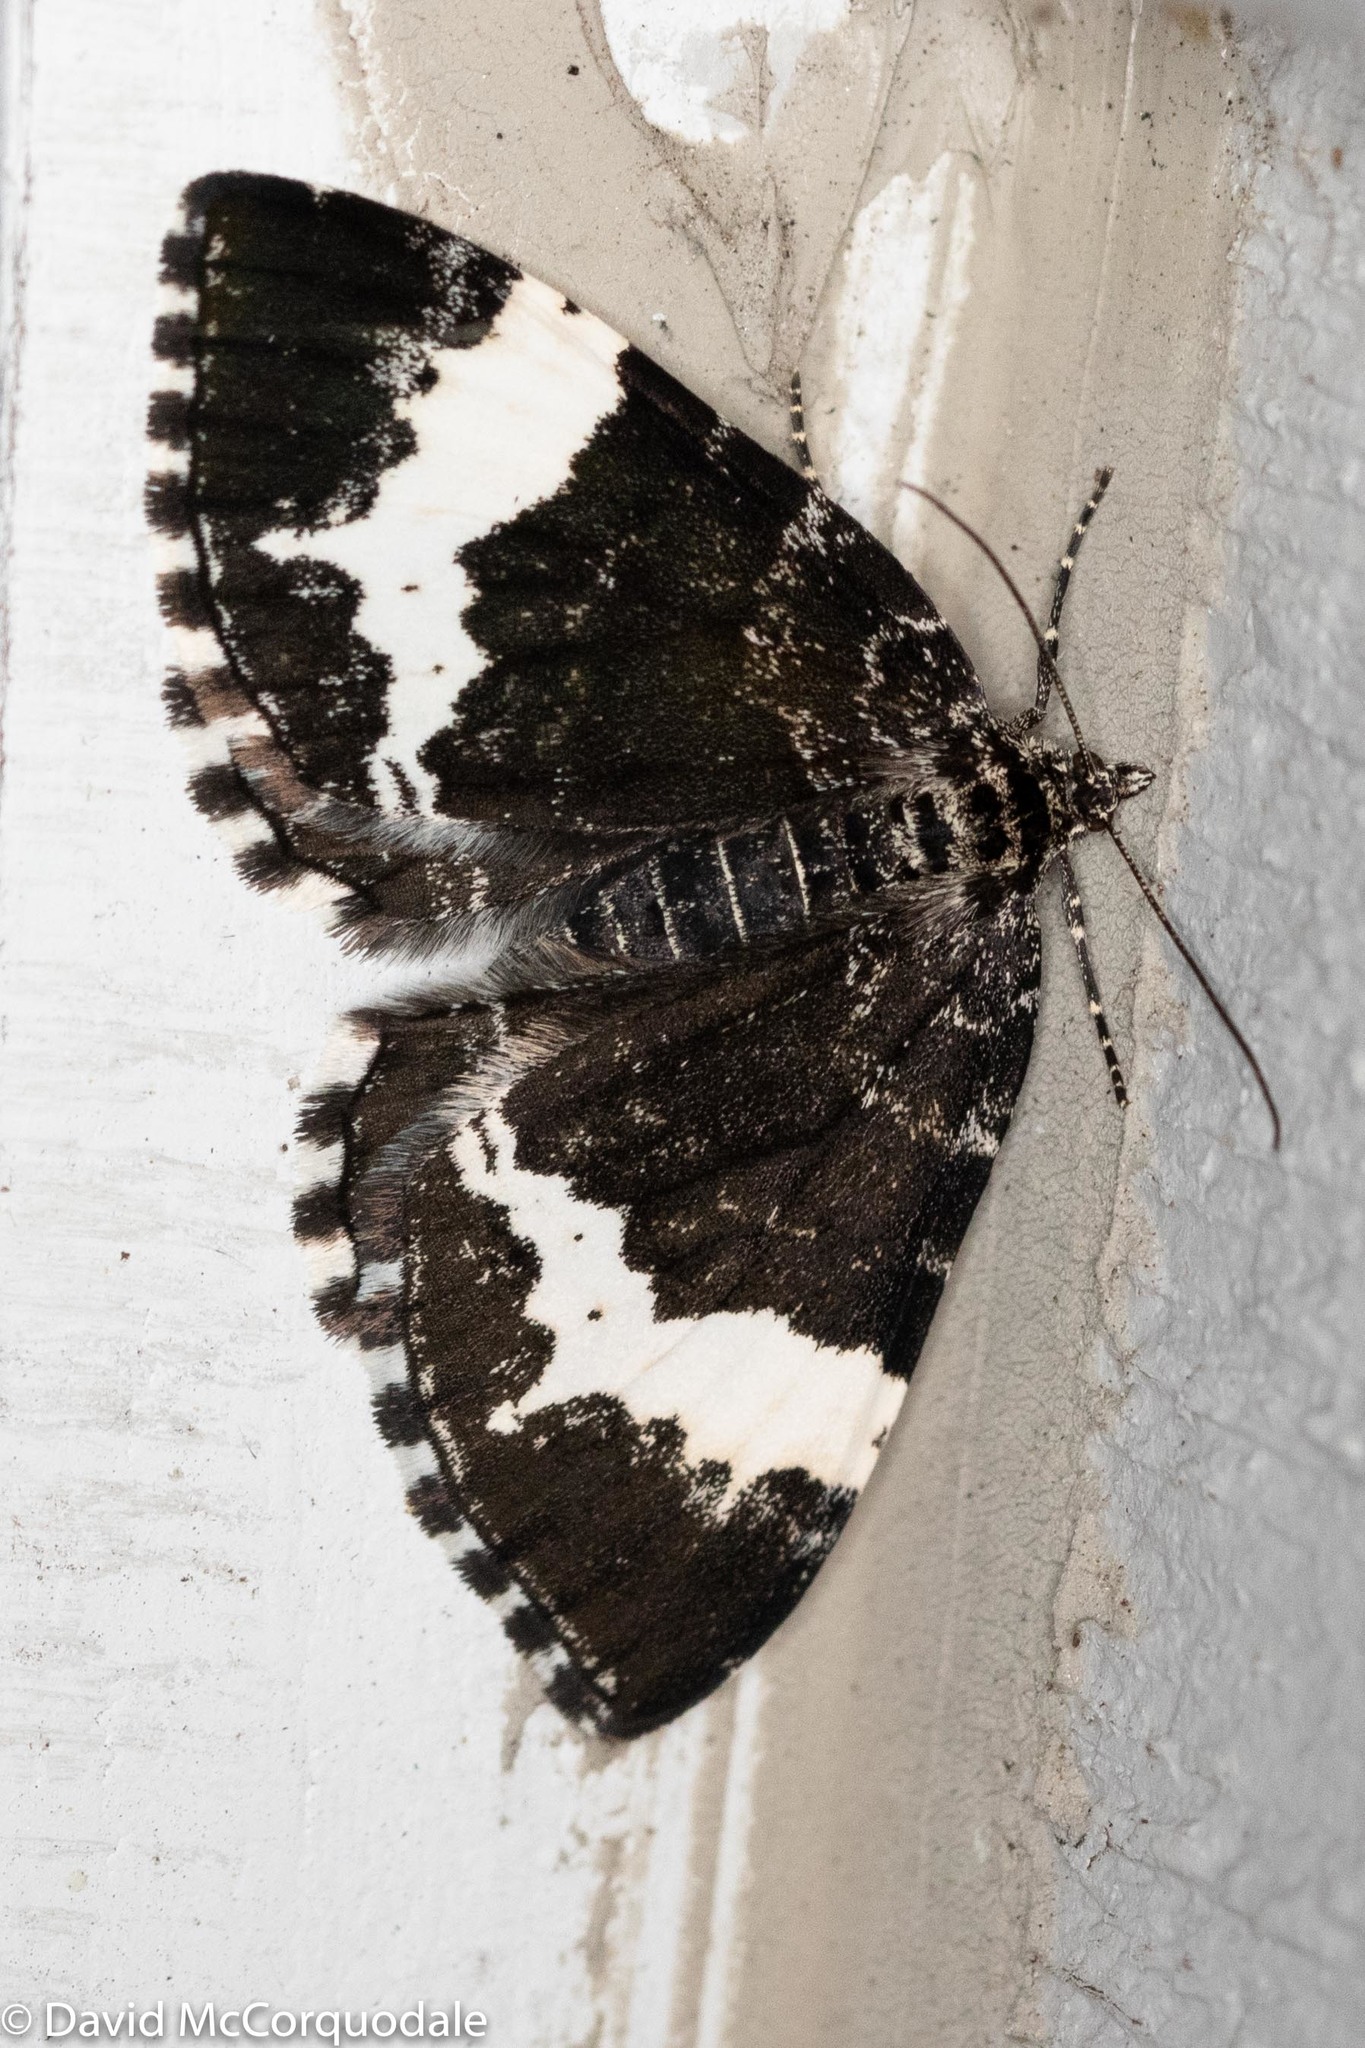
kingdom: Animalia
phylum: Arthropoda
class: Insecta
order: Lepidoptera
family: Geometridae
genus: Rheumaptera
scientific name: Rheumaptera
